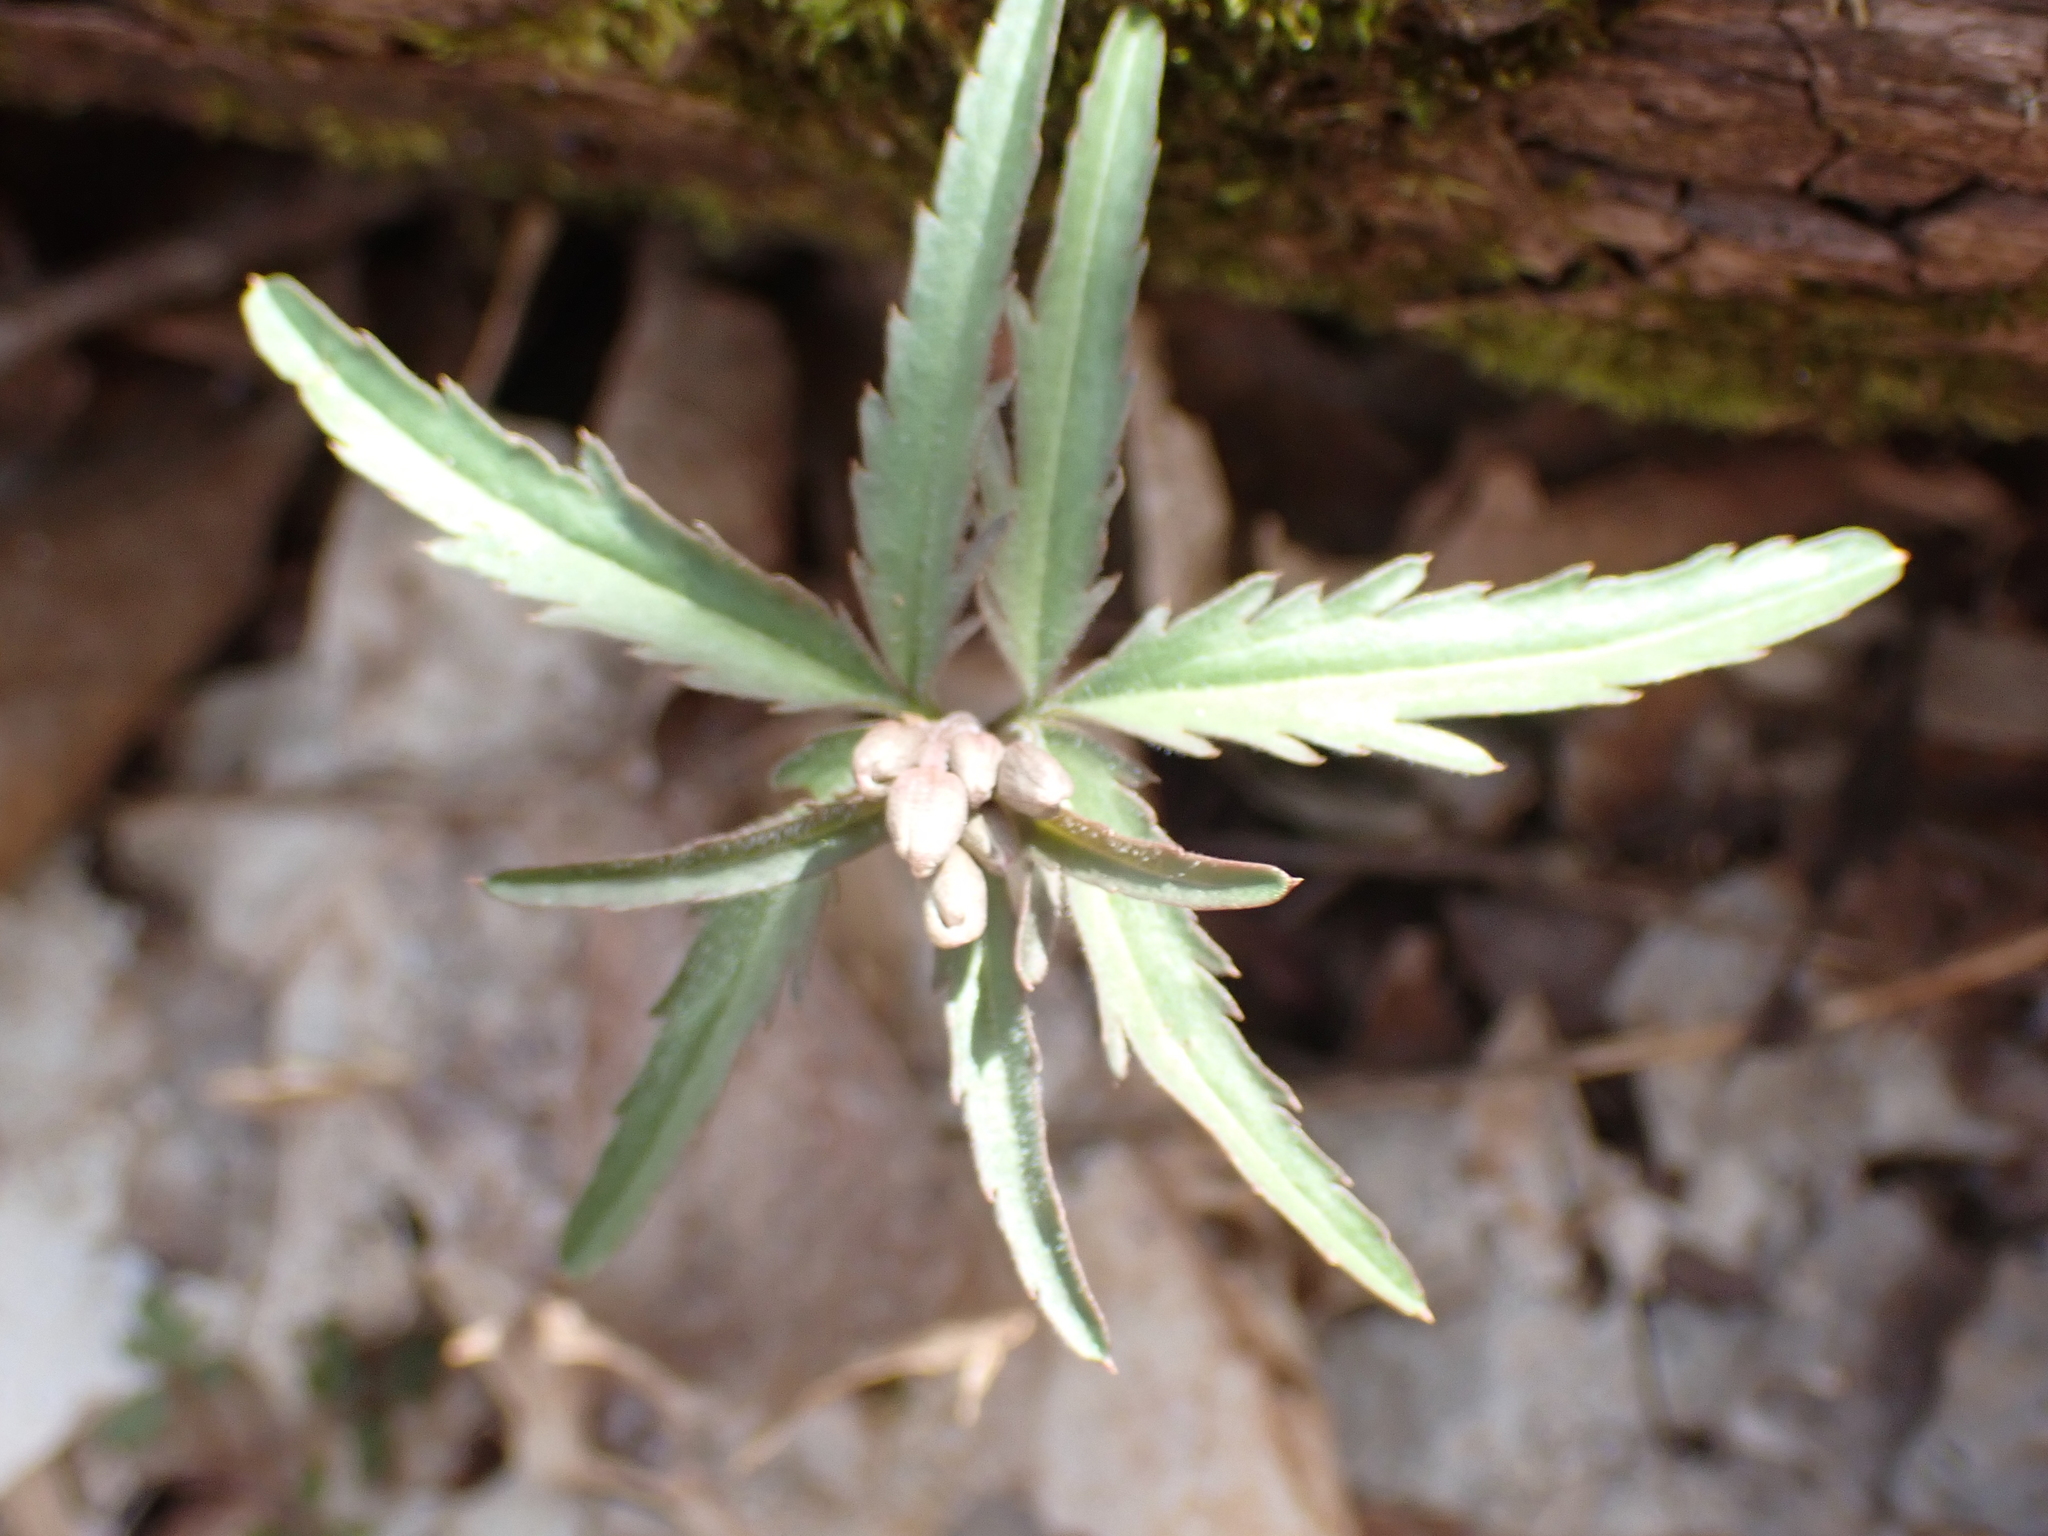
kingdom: Plantae
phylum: Tracheophyta
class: Magnoliopsida
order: Brassicales
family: Brassicaceae
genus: Cardamine
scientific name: Cardamine concatenata
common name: Cut-leaf toothcup
